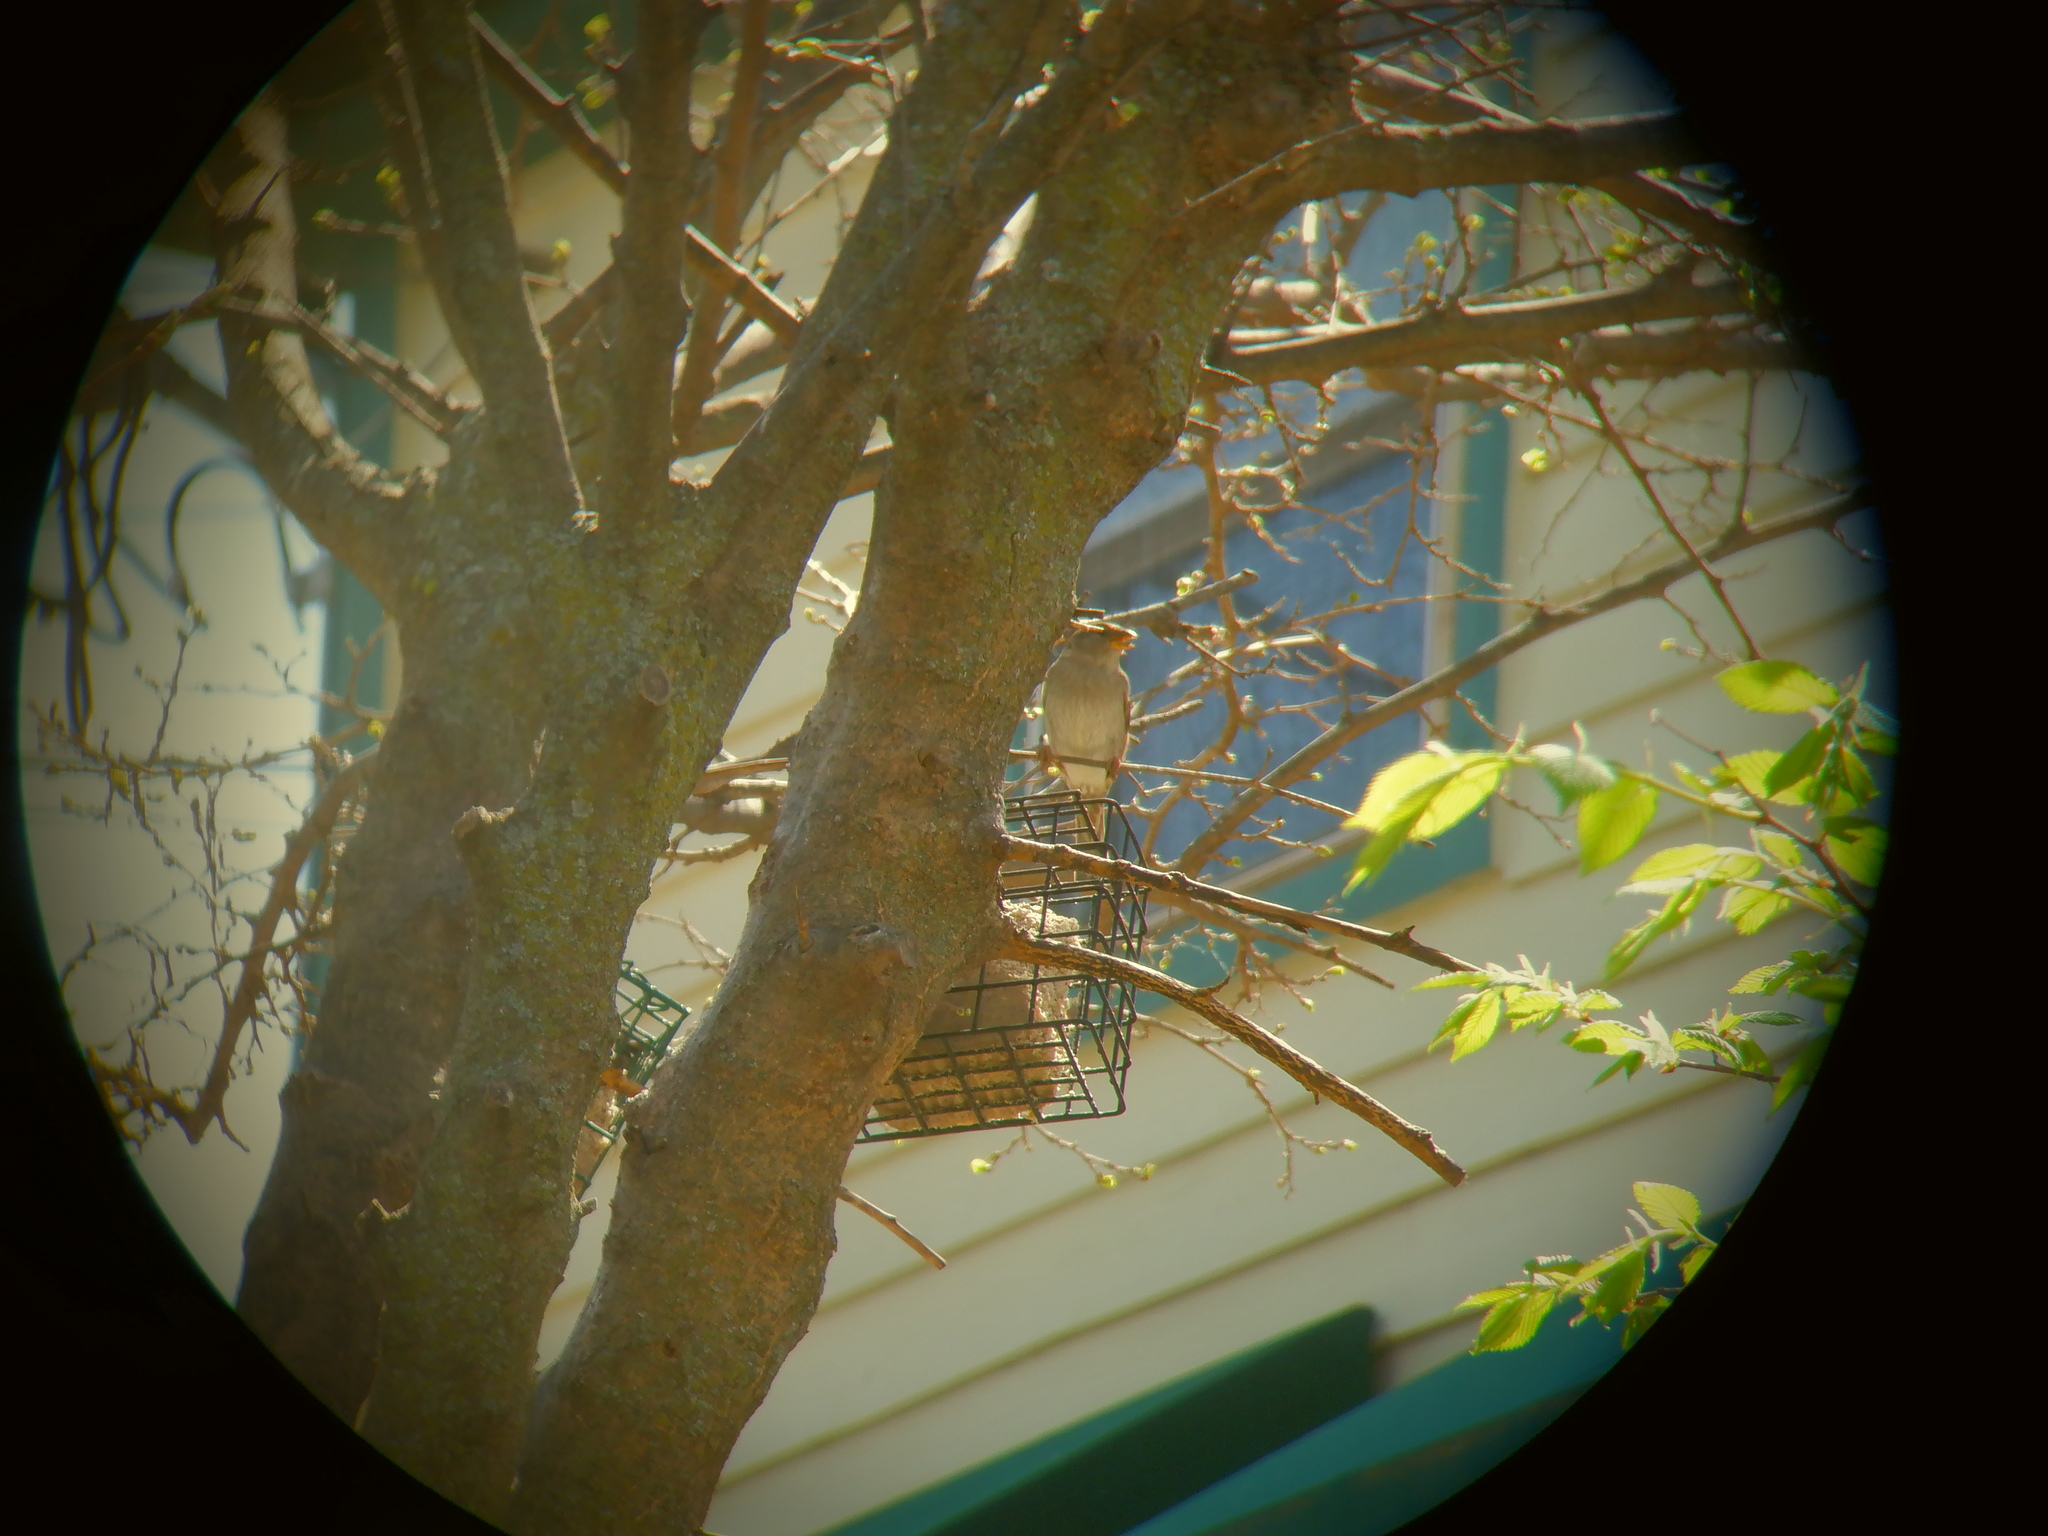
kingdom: Animalia
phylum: Chordata
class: Aves
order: Passeriformes
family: Passeridae
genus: Passer
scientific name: Passer domesticus
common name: House sparrow
